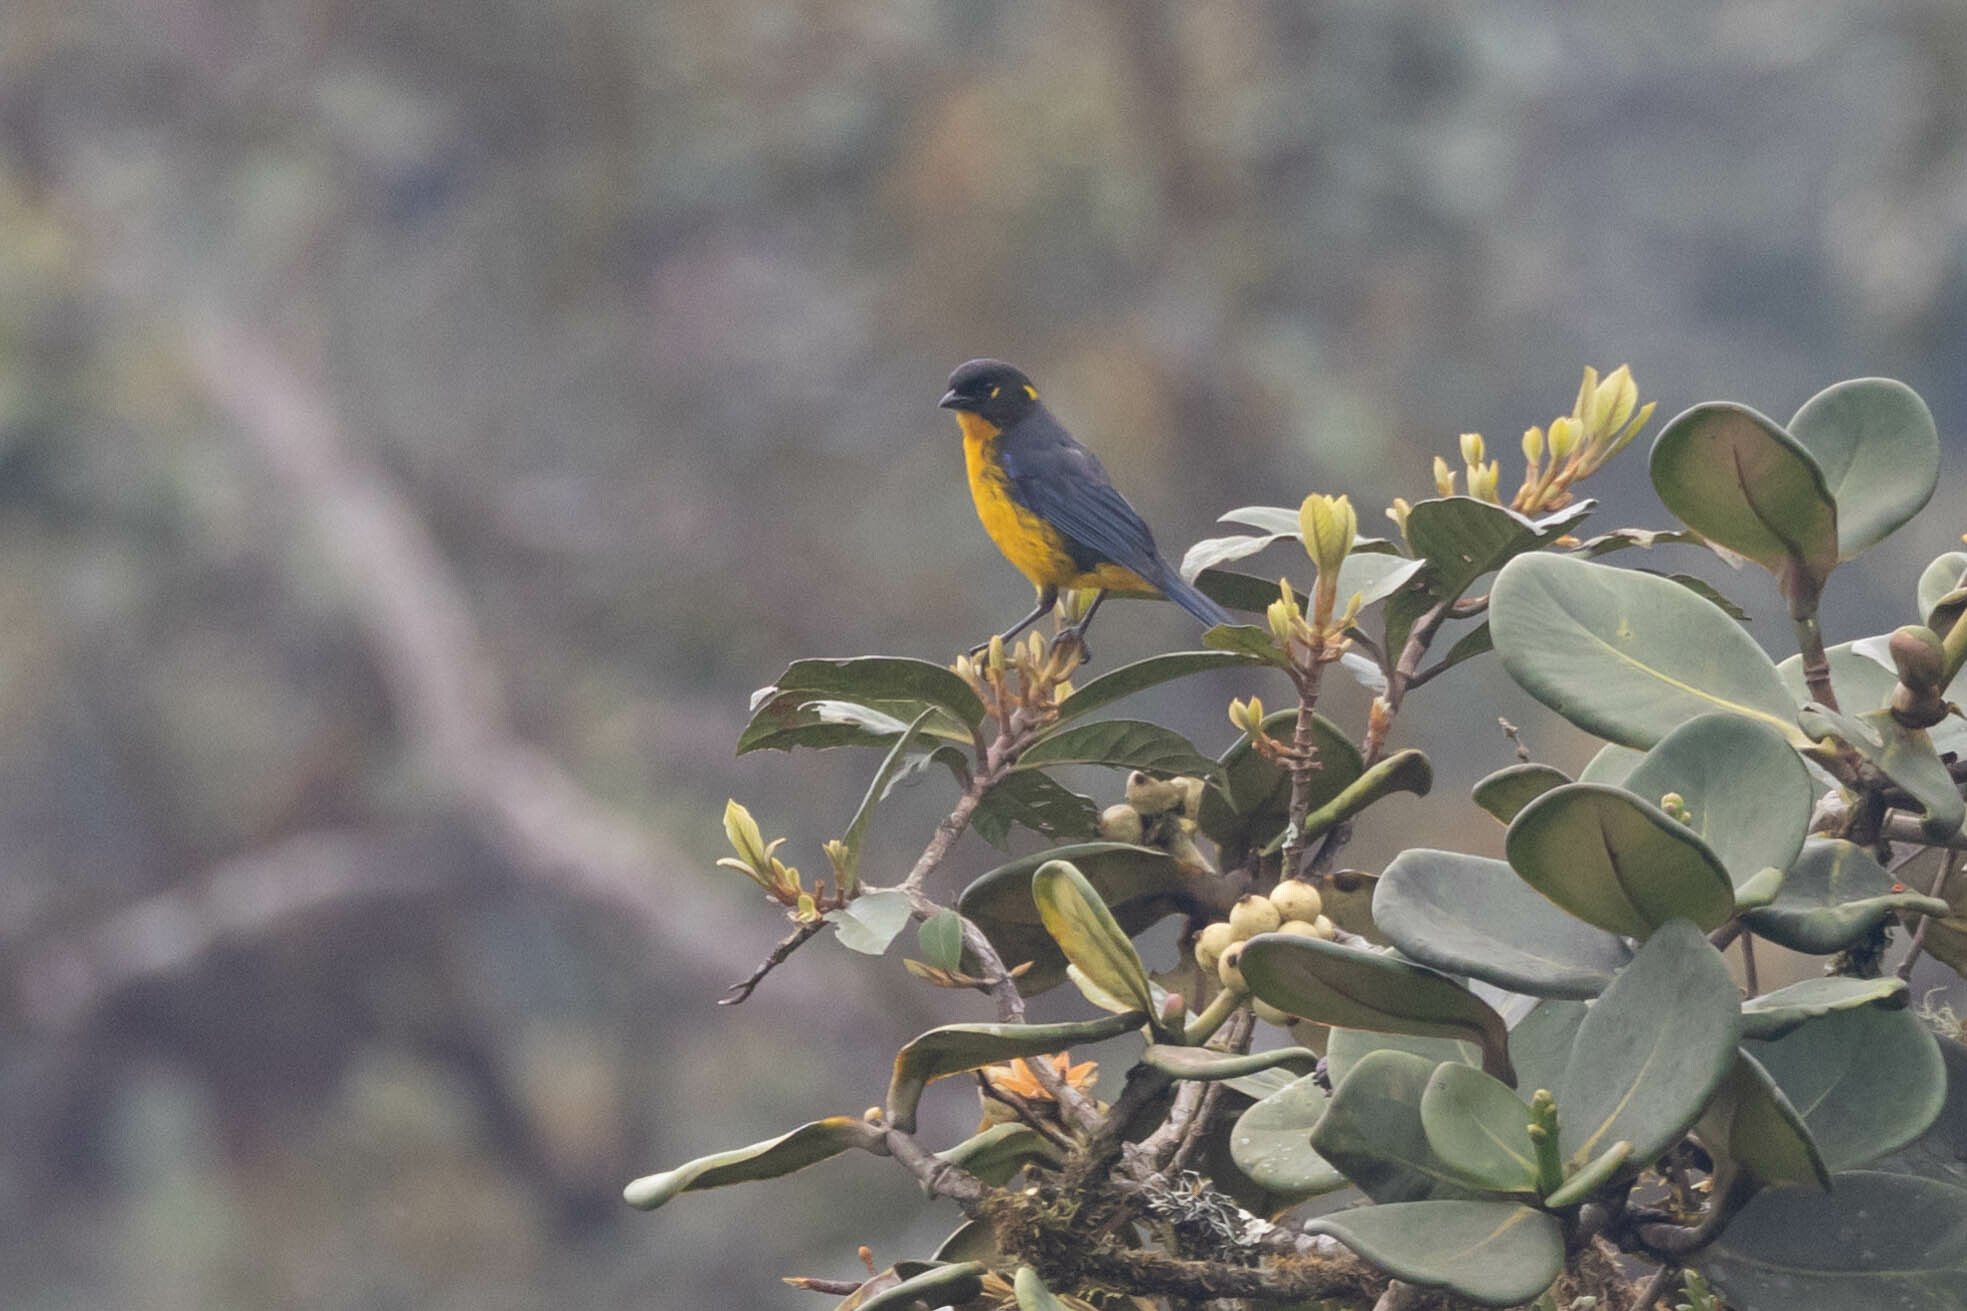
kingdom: Animalia
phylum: Chordata
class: Aves
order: Passeriformes
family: Thraupidae
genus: Anisognathus
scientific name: Anisognathus lacrymosus
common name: Lacrimose mountain-tanager
